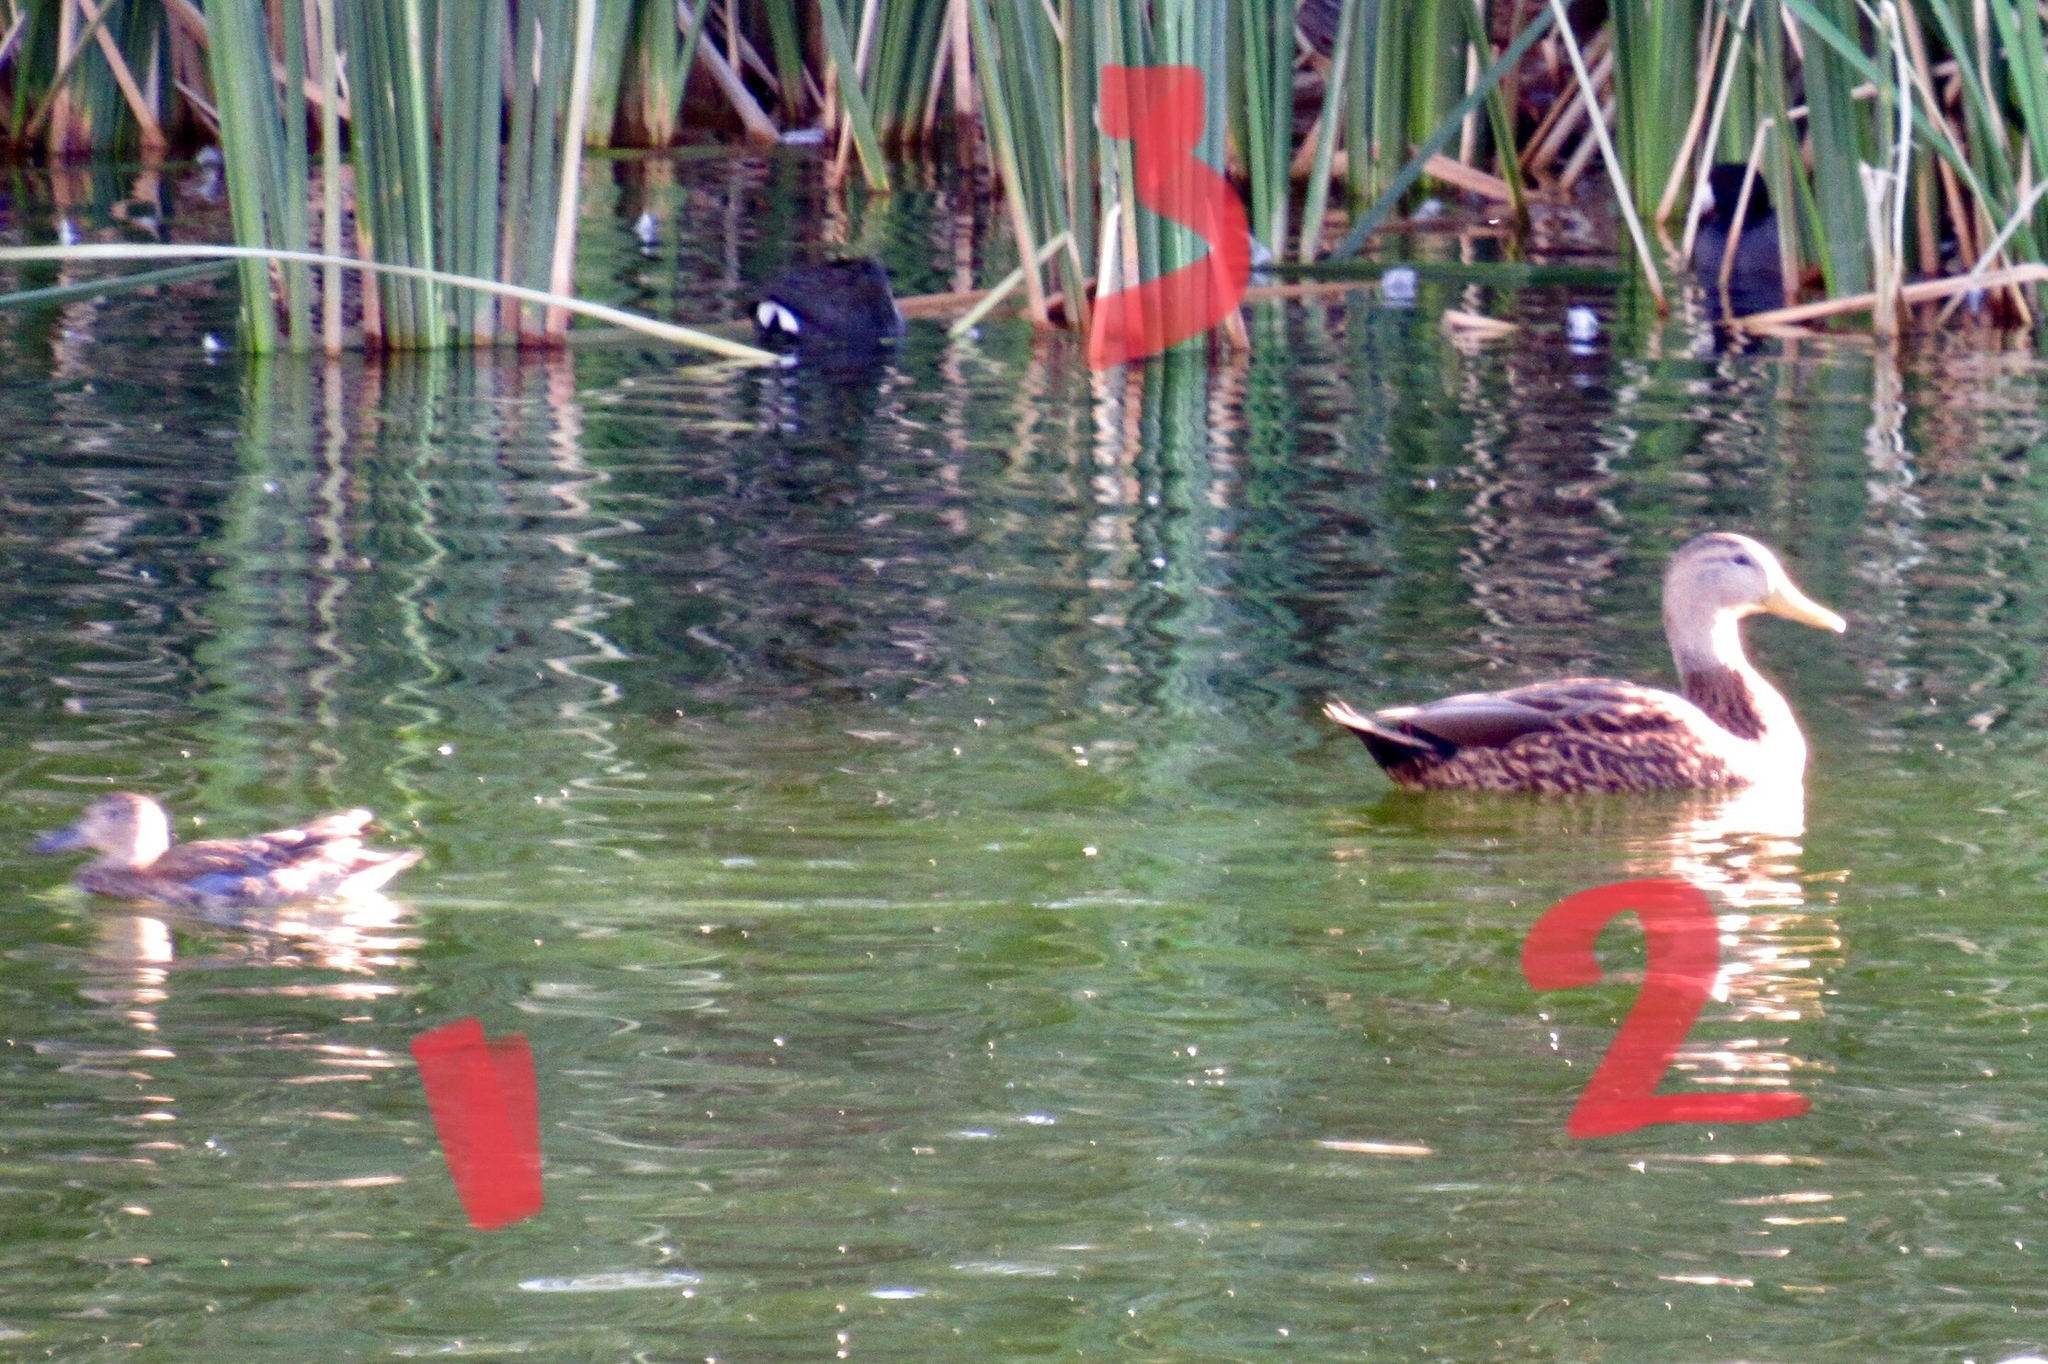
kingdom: Animalia
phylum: Chordata
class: Aves
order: Anseriformes
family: Anatidae
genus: Spatula
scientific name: Spatula discors
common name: Blue-winged teal
